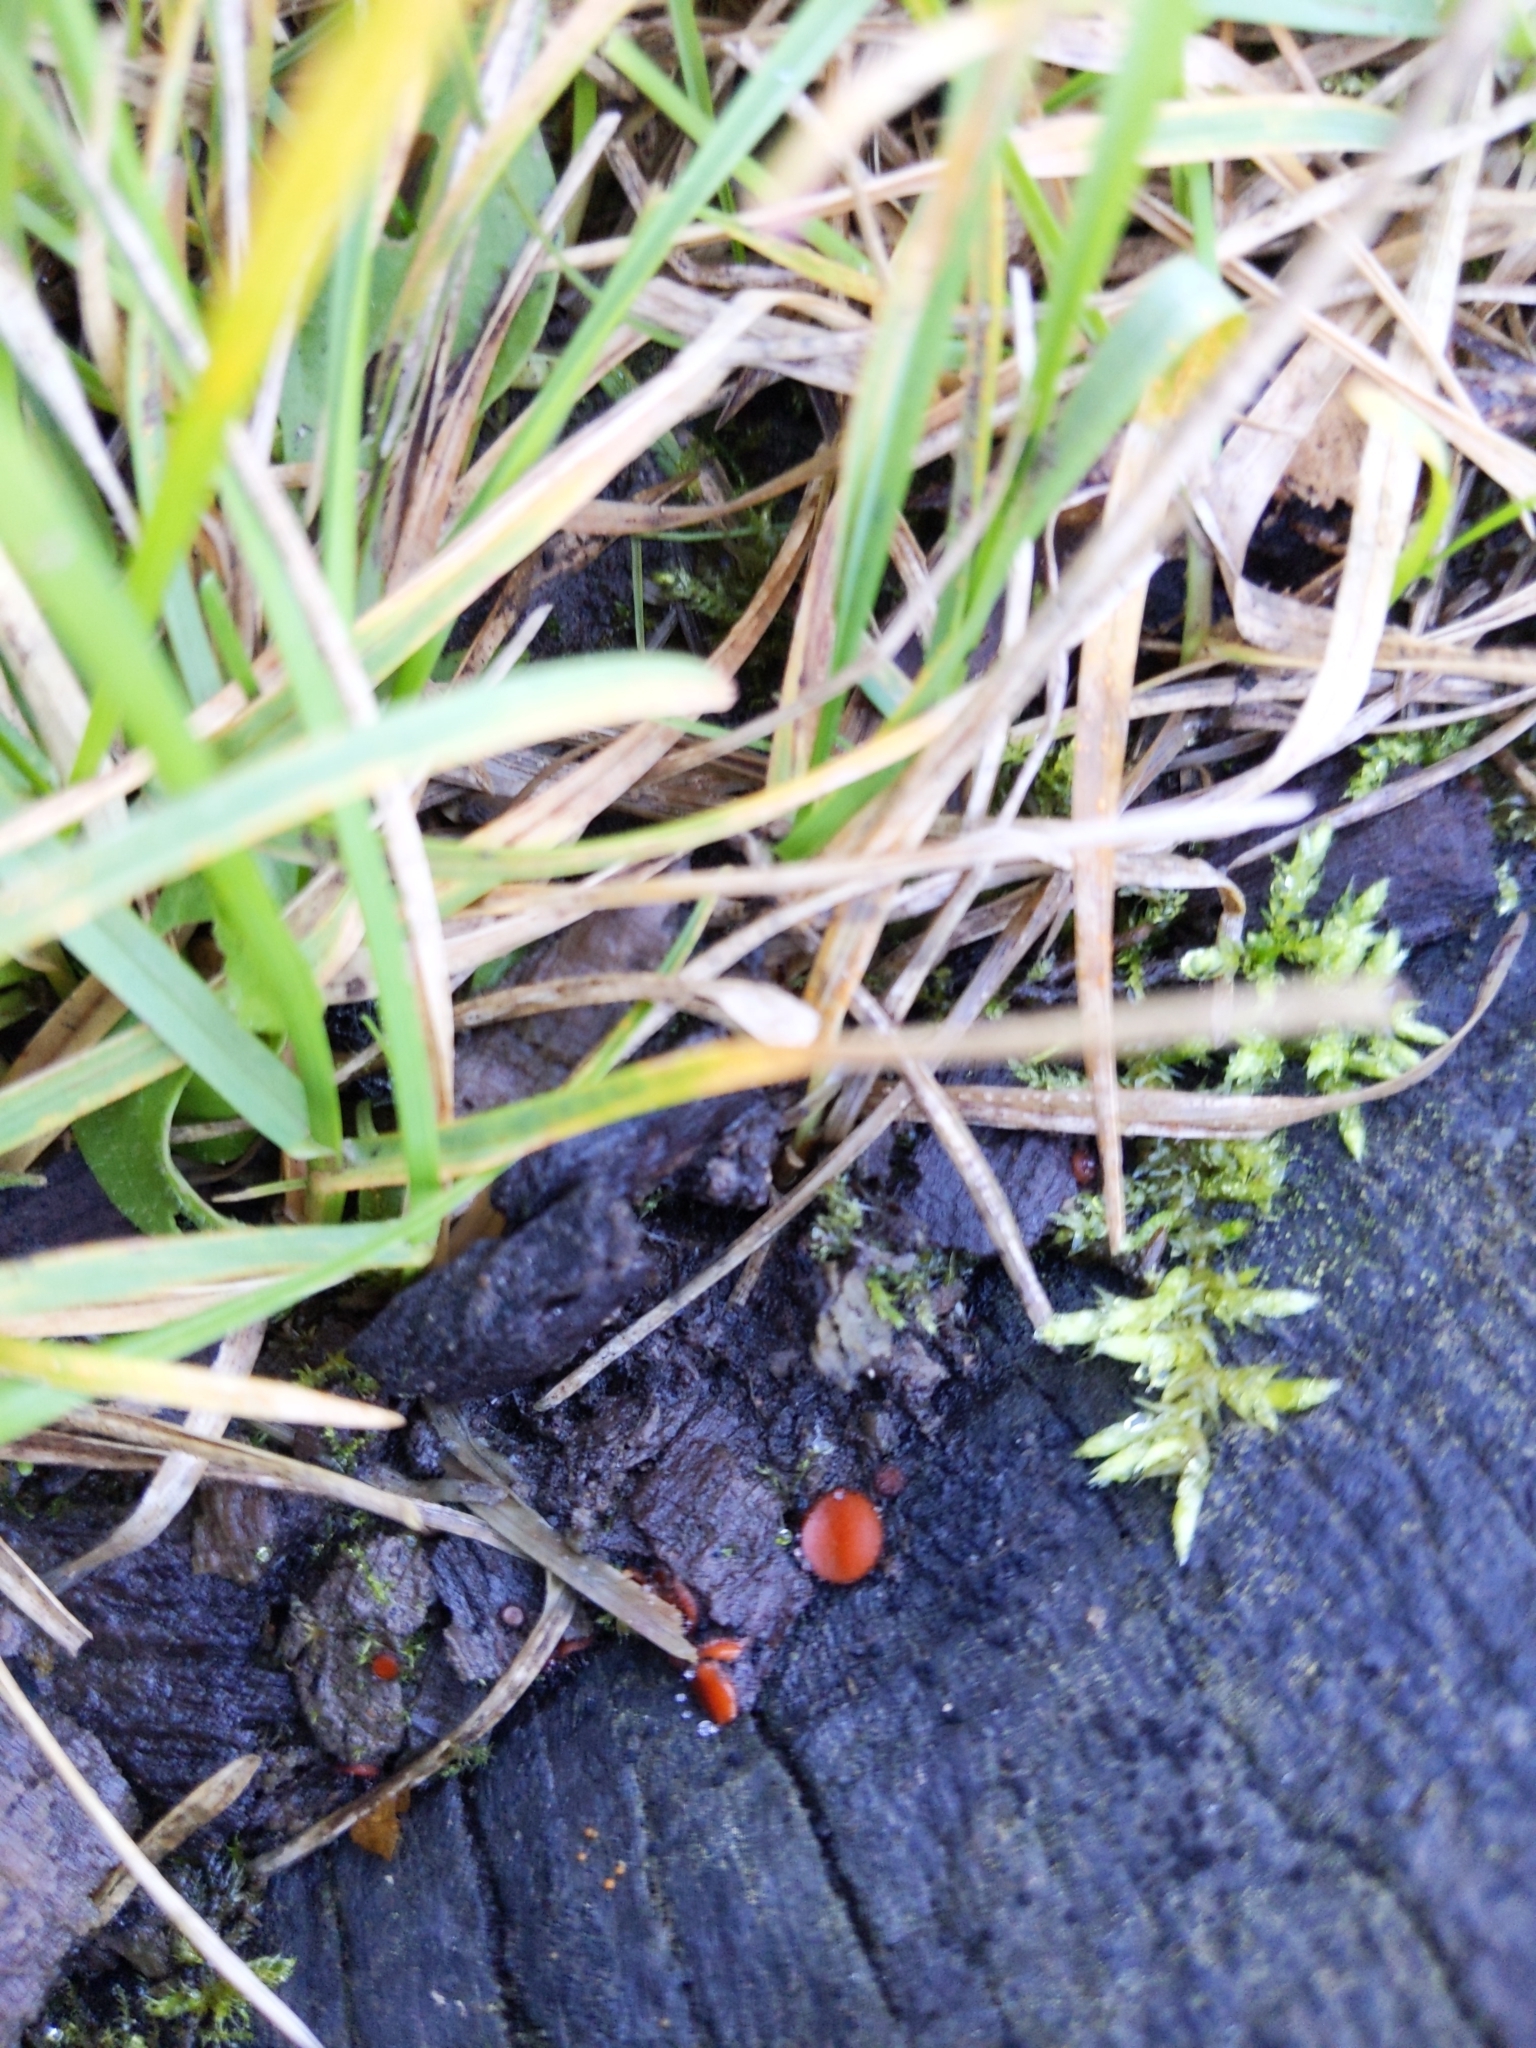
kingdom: Fungi
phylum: Ascomycota
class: Pezizomycetes
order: Pezizales
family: Pyronemataceae
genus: Scutellinia
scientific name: Scutellinia scutellata
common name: Common eyelash
